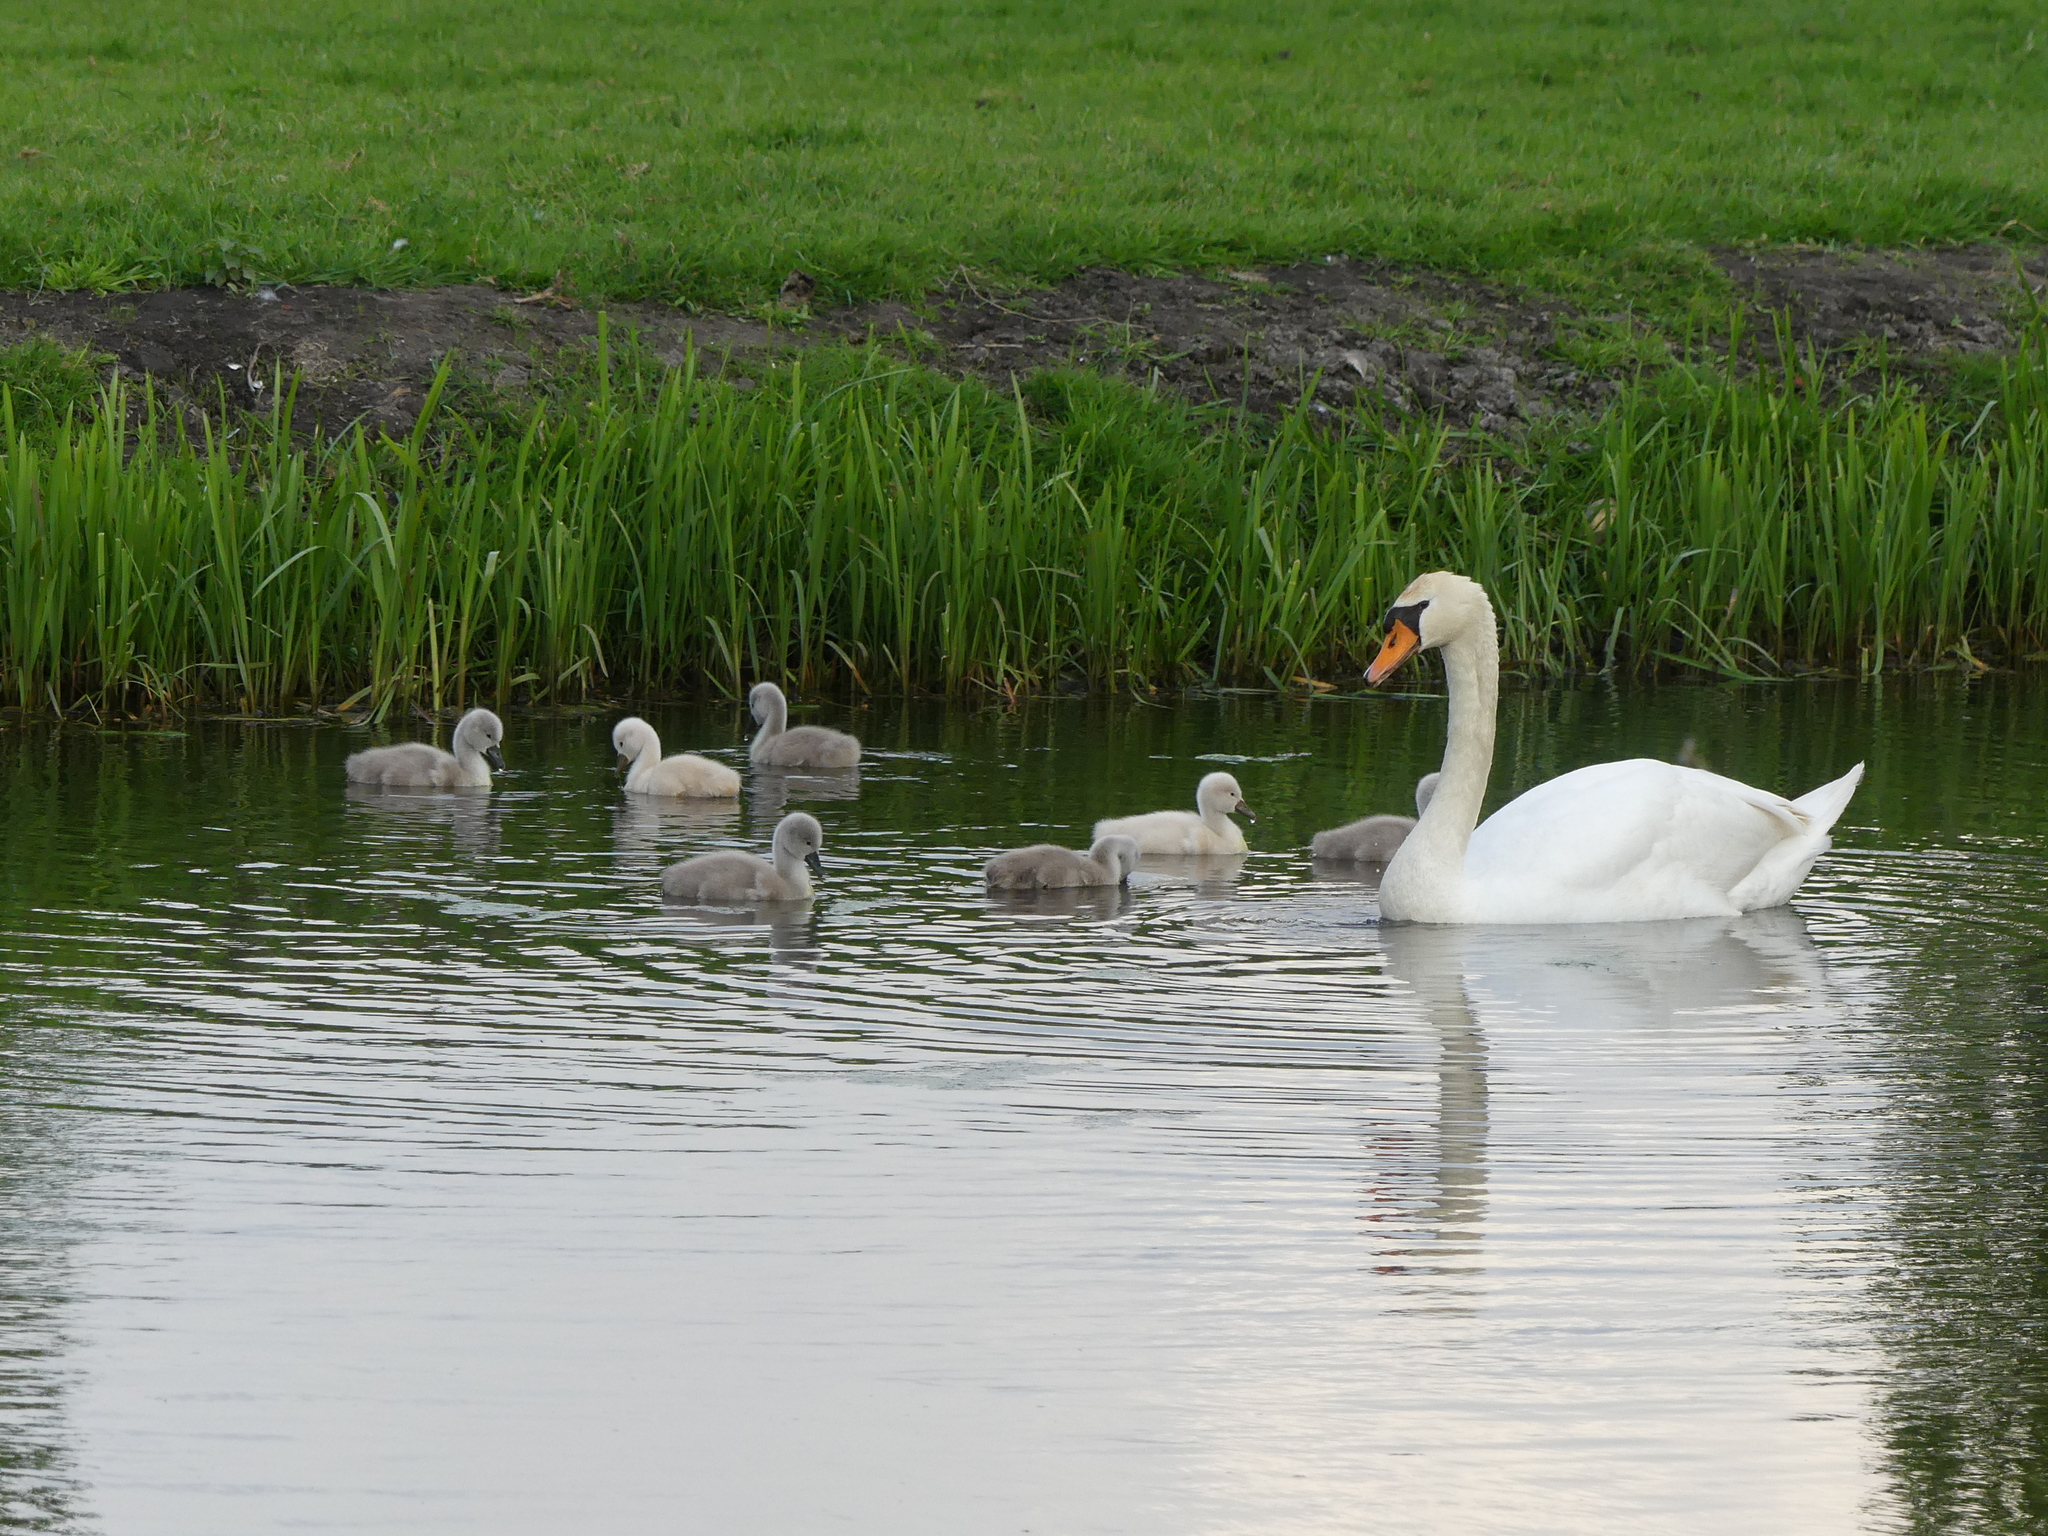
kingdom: Animalia
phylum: Chordata
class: Aves
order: Anseriformes
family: Anatidae
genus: Cygnus
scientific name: Cygnus olor
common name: Mute swan
